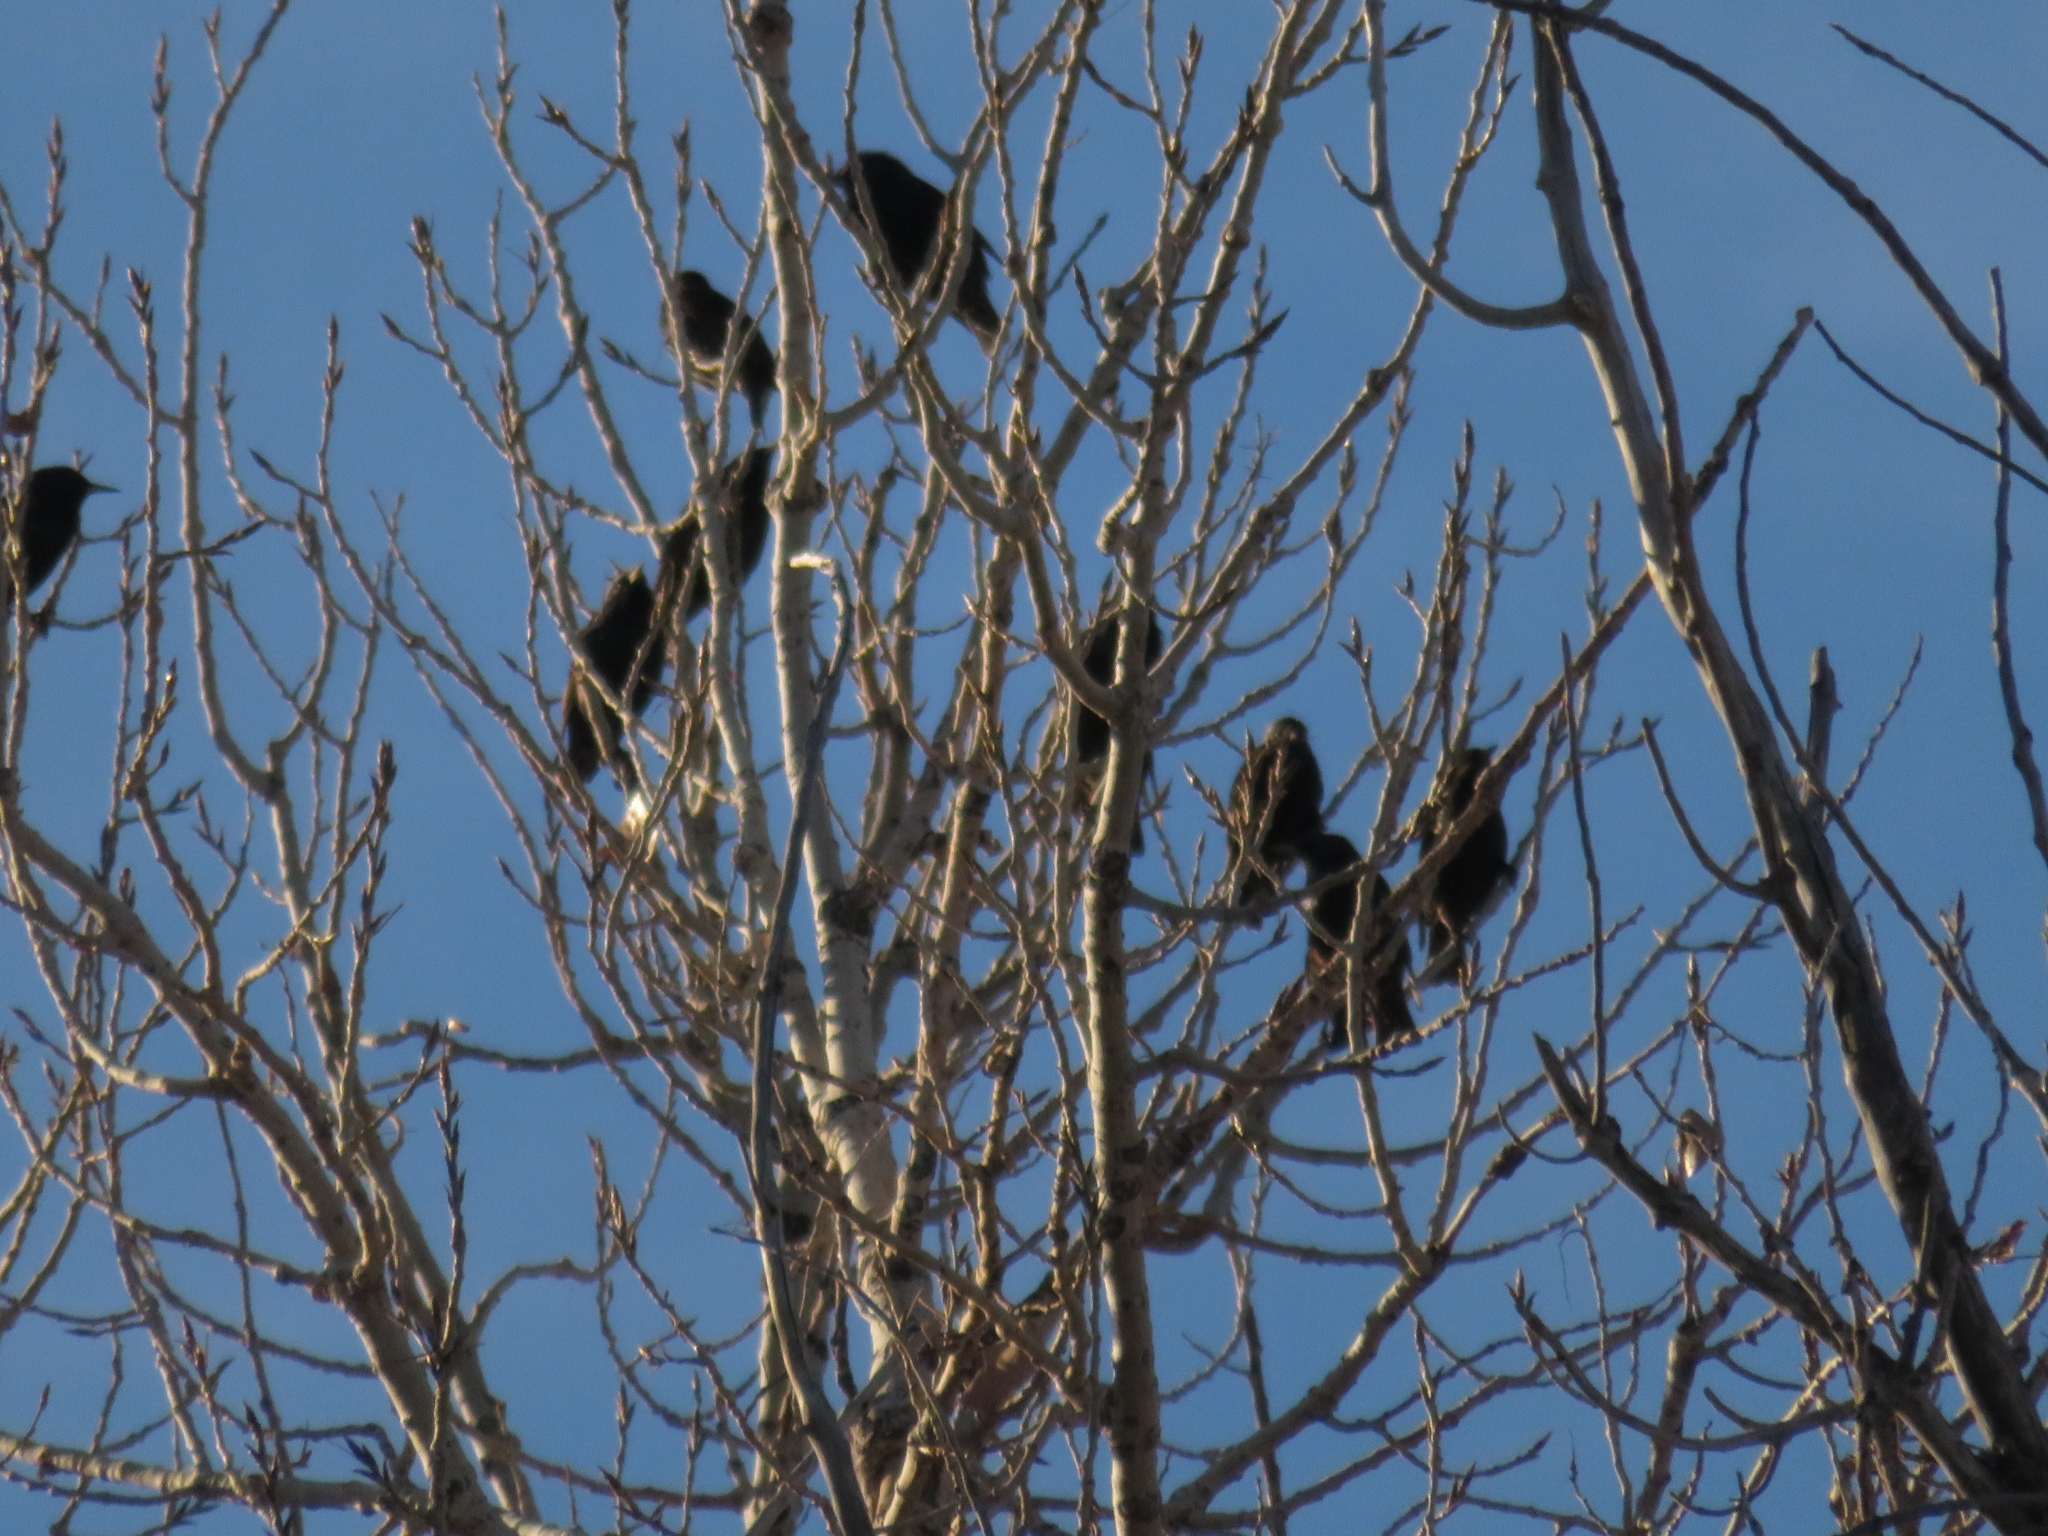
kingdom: Animalia
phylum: Chordata
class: Aves
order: Passeriformes
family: Sturnidae
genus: Sturnus
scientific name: Sturnus vulgaris
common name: Common starling
